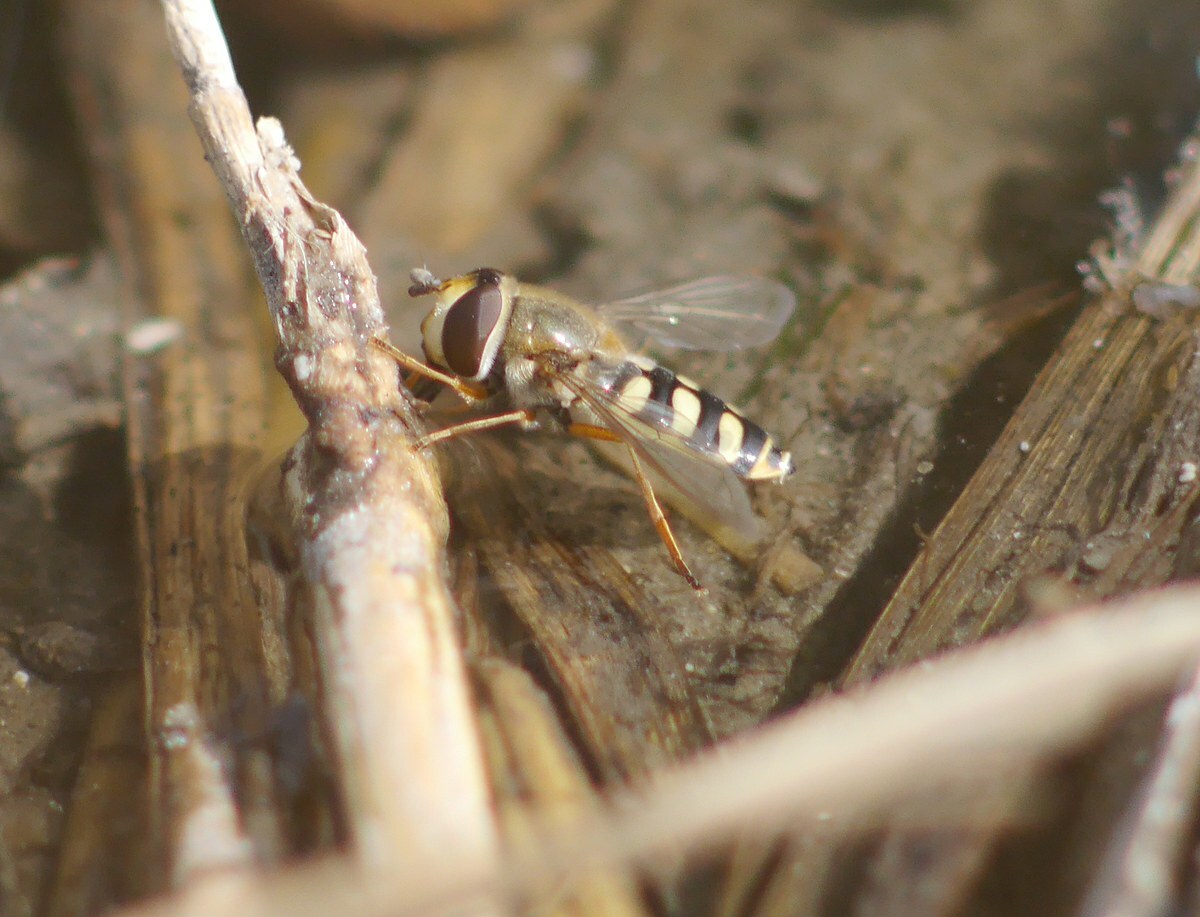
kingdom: Animalia
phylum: Arthropoda
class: Insecta
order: Diptera
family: Syrphidae
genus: Scaeva
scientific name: Scaeva pyrastri
